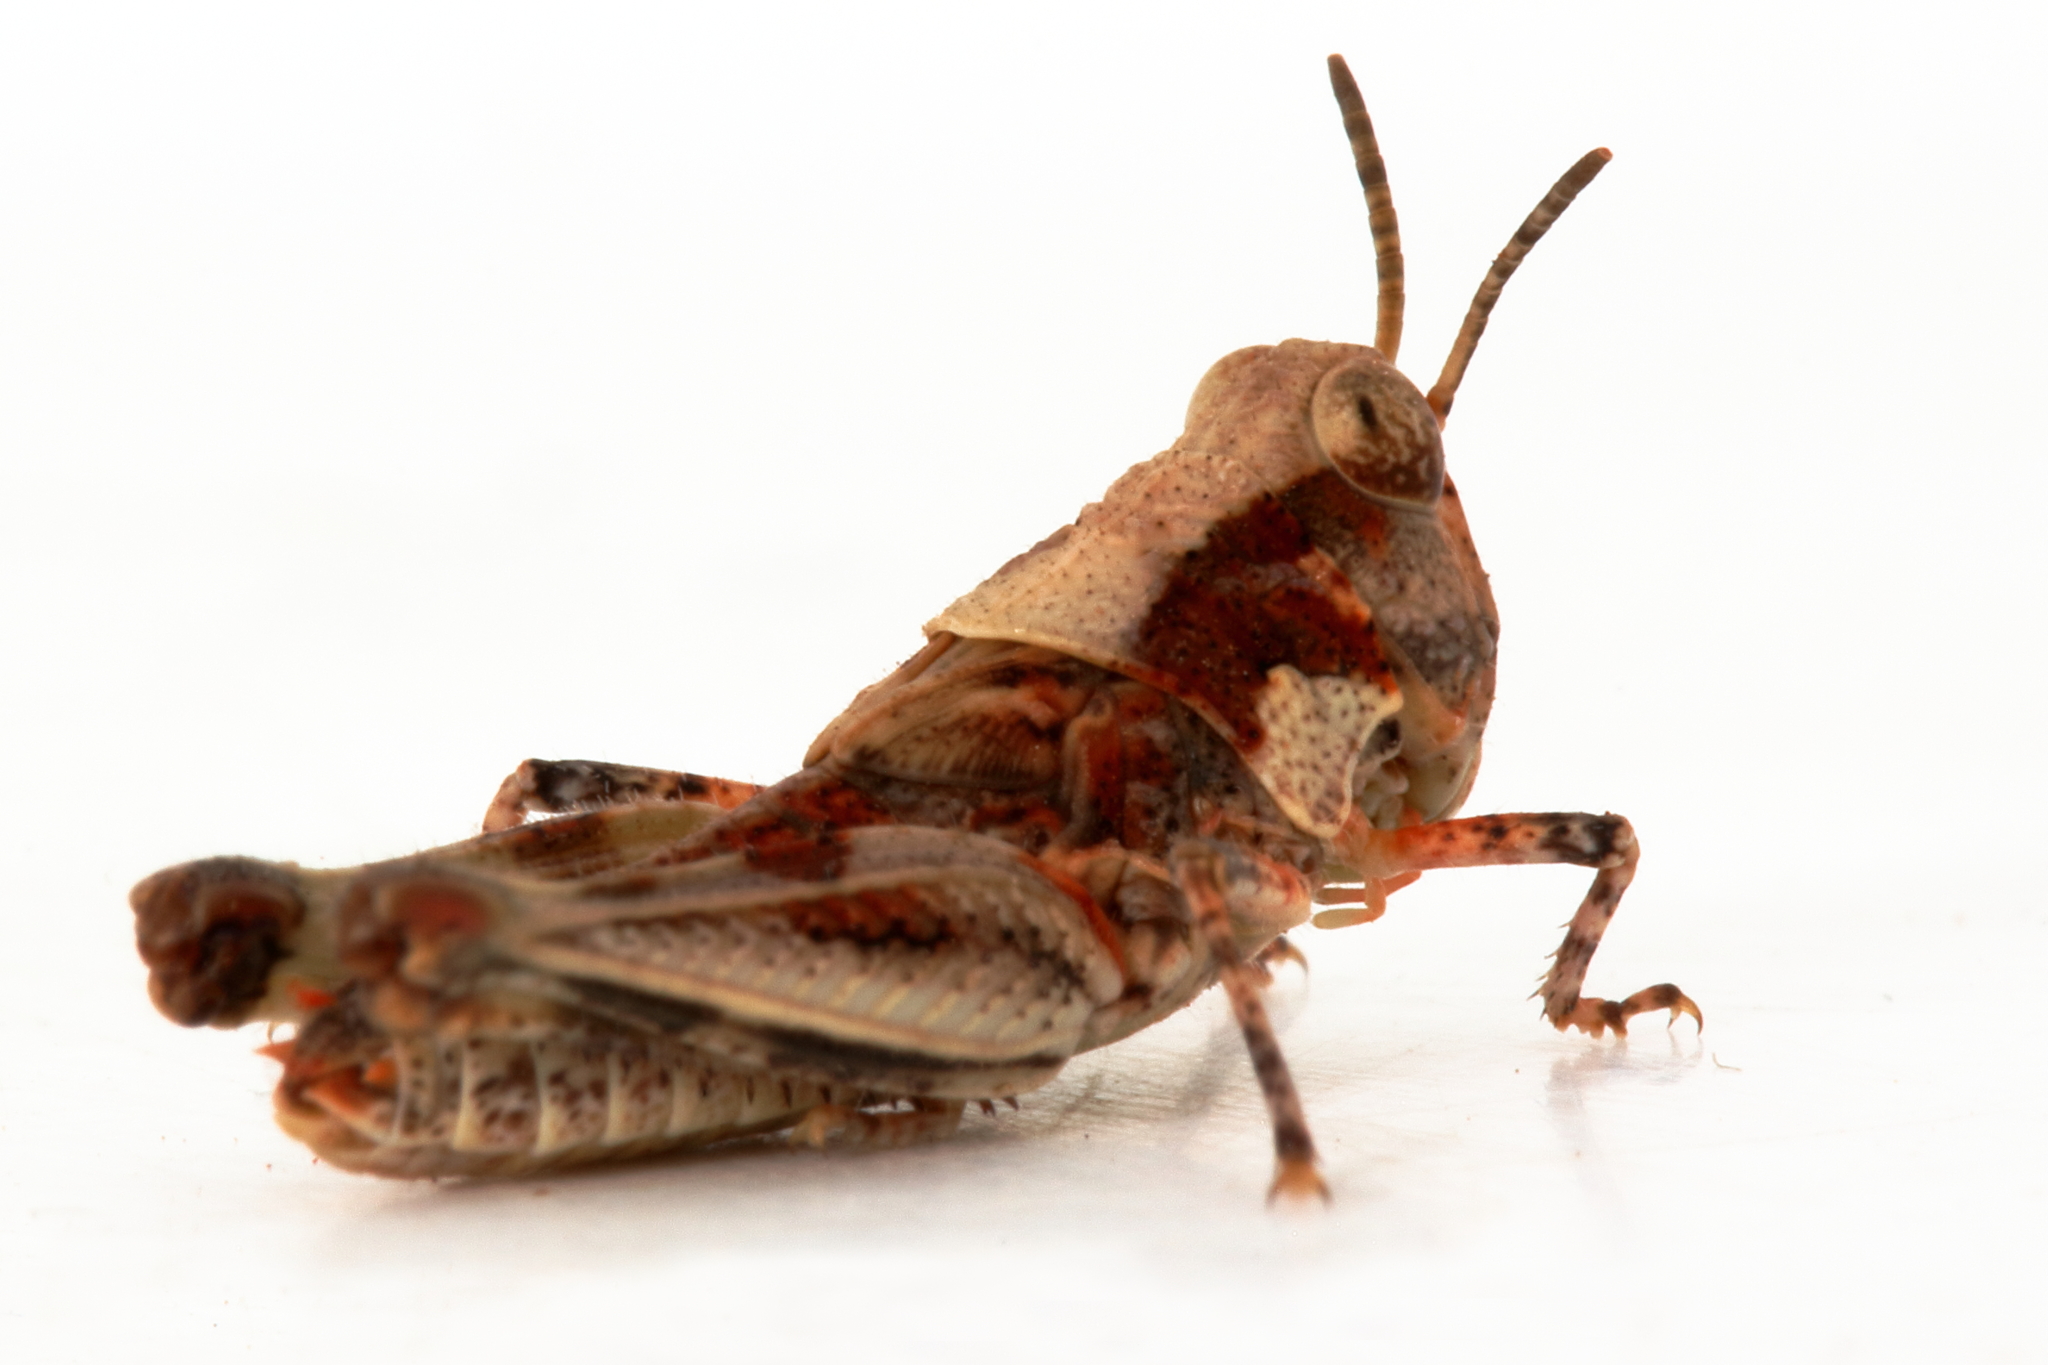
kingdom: Animalia
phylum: Arthropoda
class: Insecta
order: Orthoptera
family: Acrididae
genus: Pycnostictus
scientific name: Pycnostictus seriatus
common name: Common bandwing
